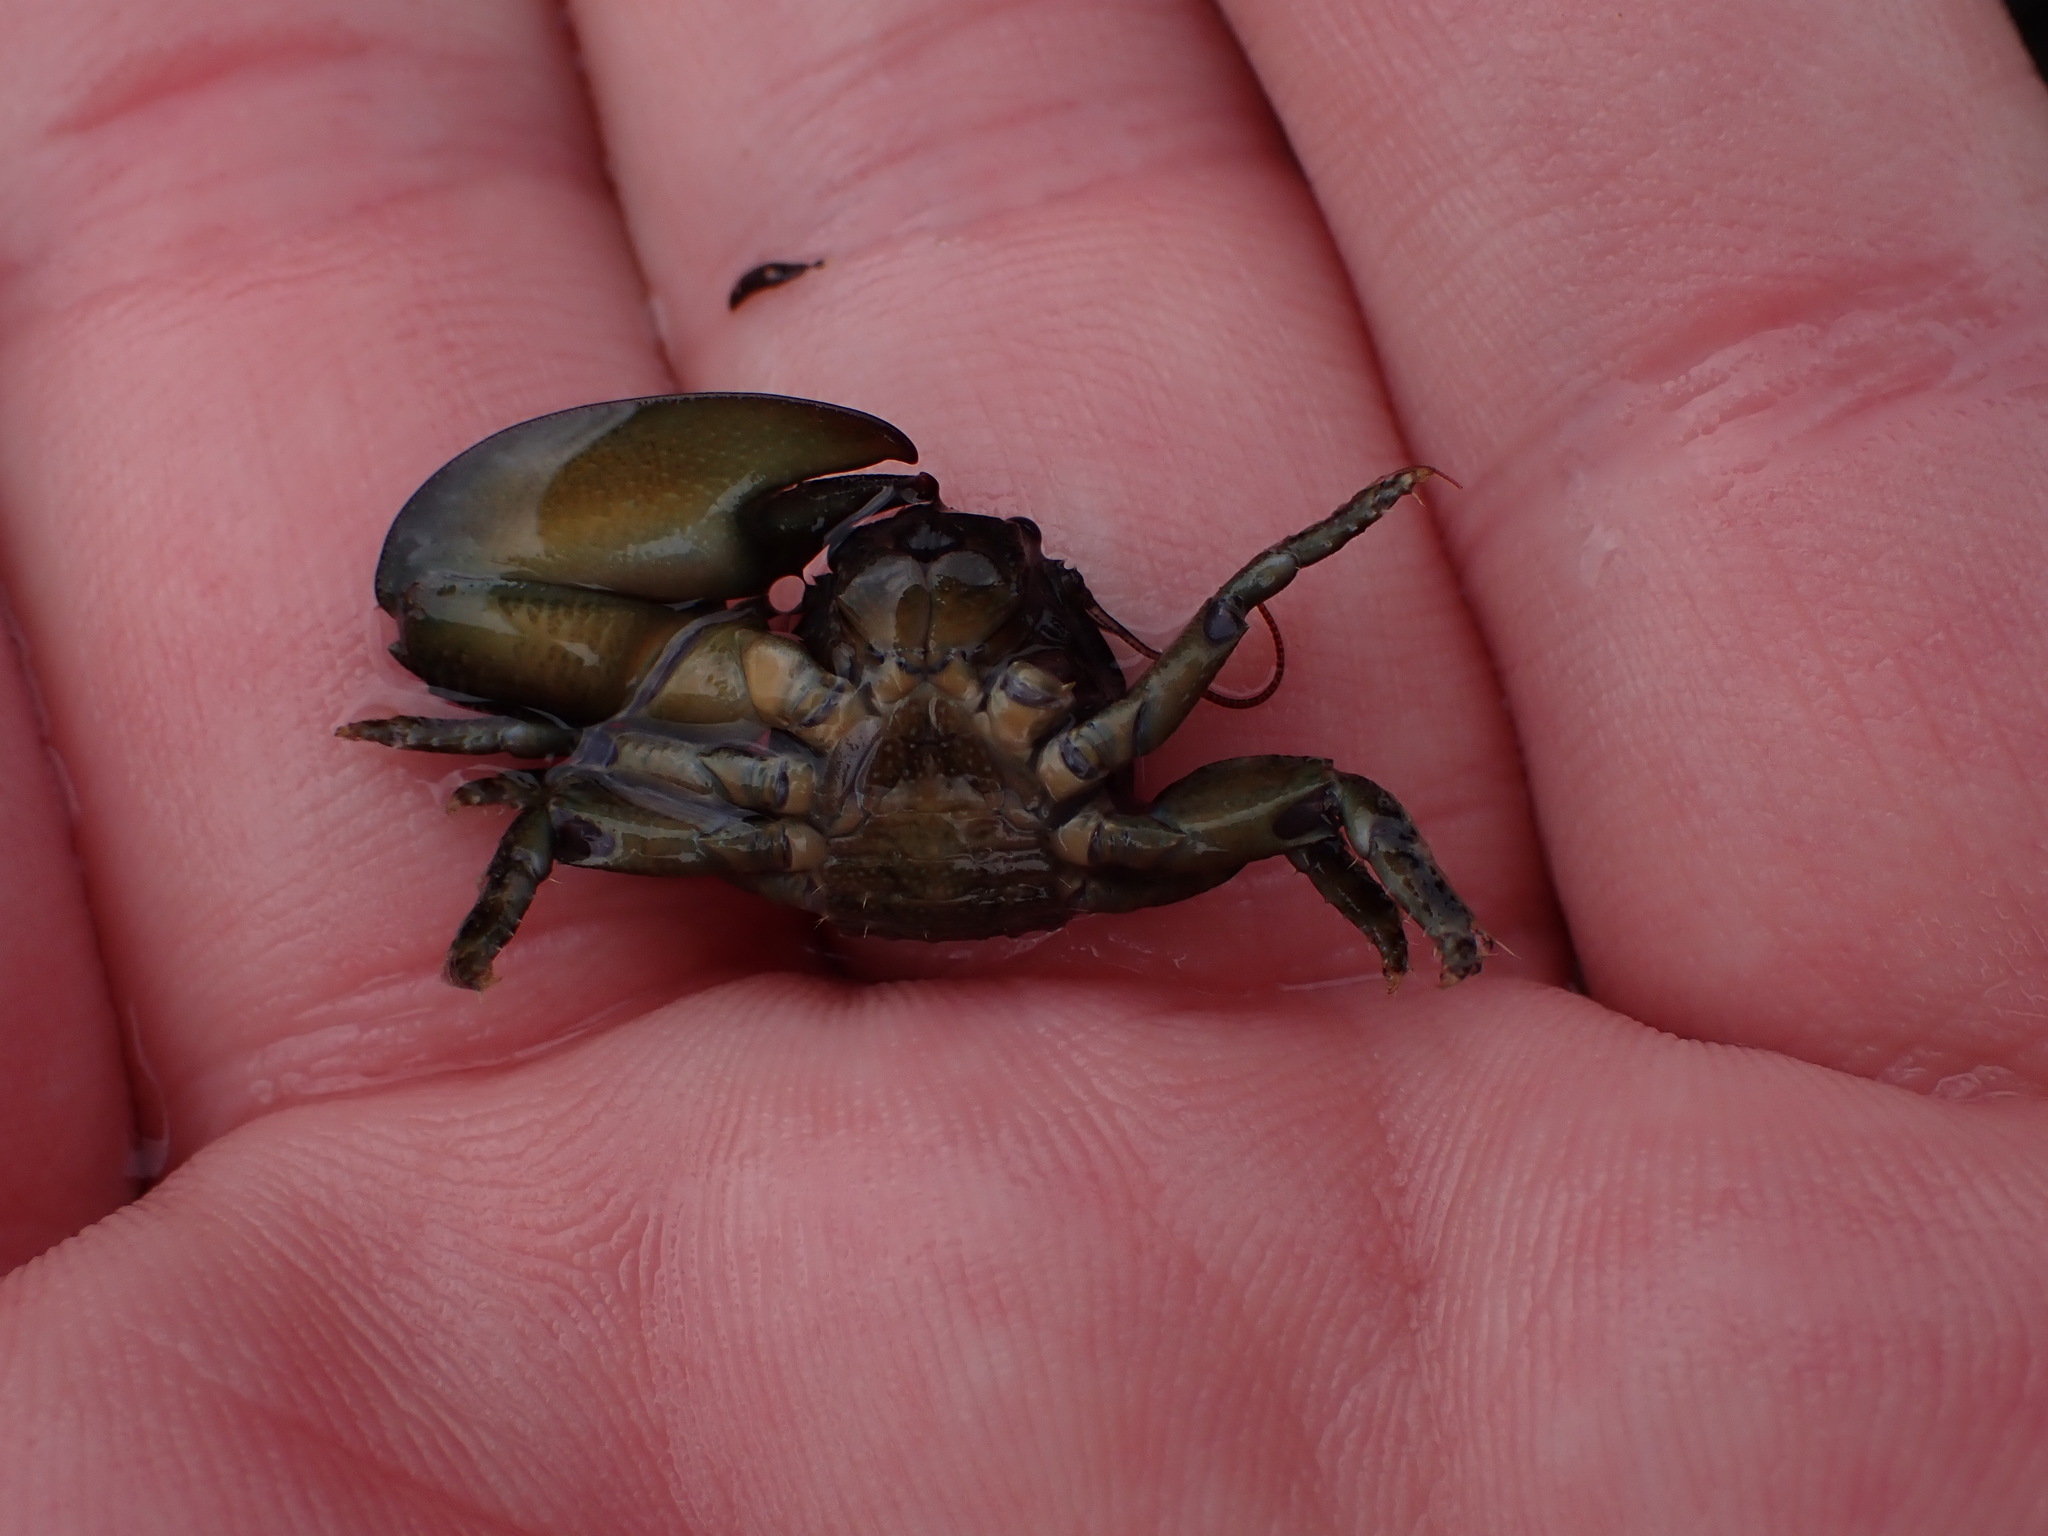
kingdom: Animalia
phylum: Arthropoda
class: Malacostraca
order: Decapoda
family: Porcellanidae
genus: Petrolisthes
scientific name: Petrolisthes elongatus
